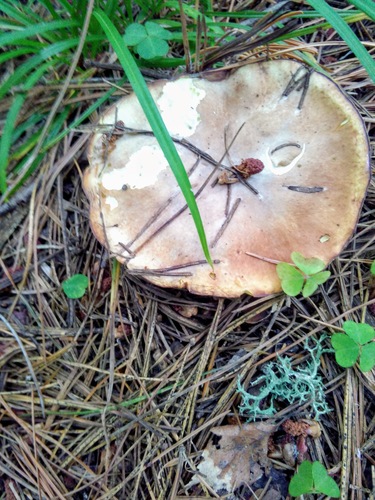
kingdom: Fungi
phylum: Basidiomycota
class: Agaricomycetes
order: Boletales
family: Suillaceae
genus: Suillus
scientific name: Suillus placidus
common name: Slippery white bolete
